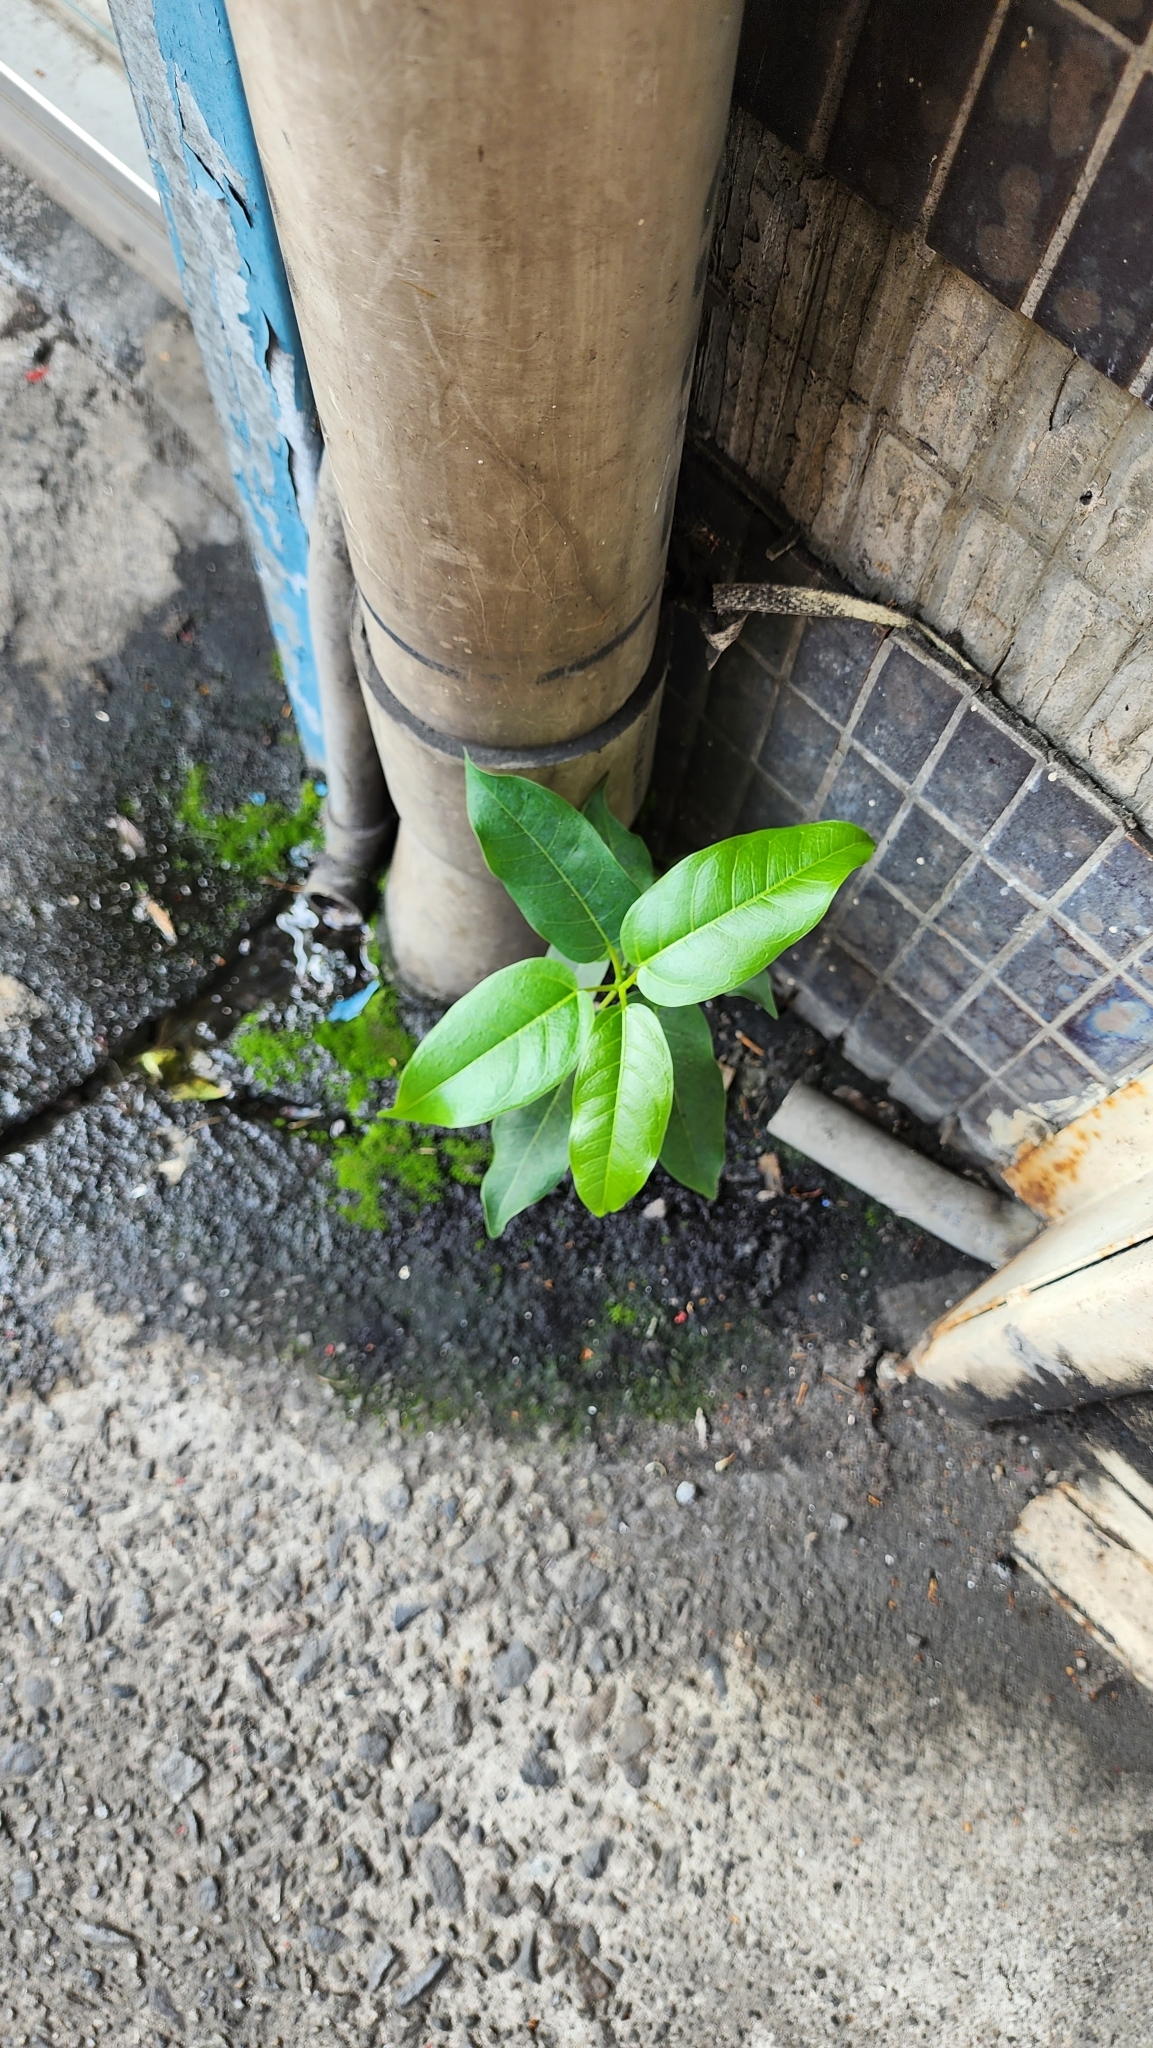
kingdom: Plantae
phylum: Tracheophyta
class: Magnoliopsida
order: Rosales
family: Moraceae
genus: Ficus
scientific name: Ficus subpisocarpa
